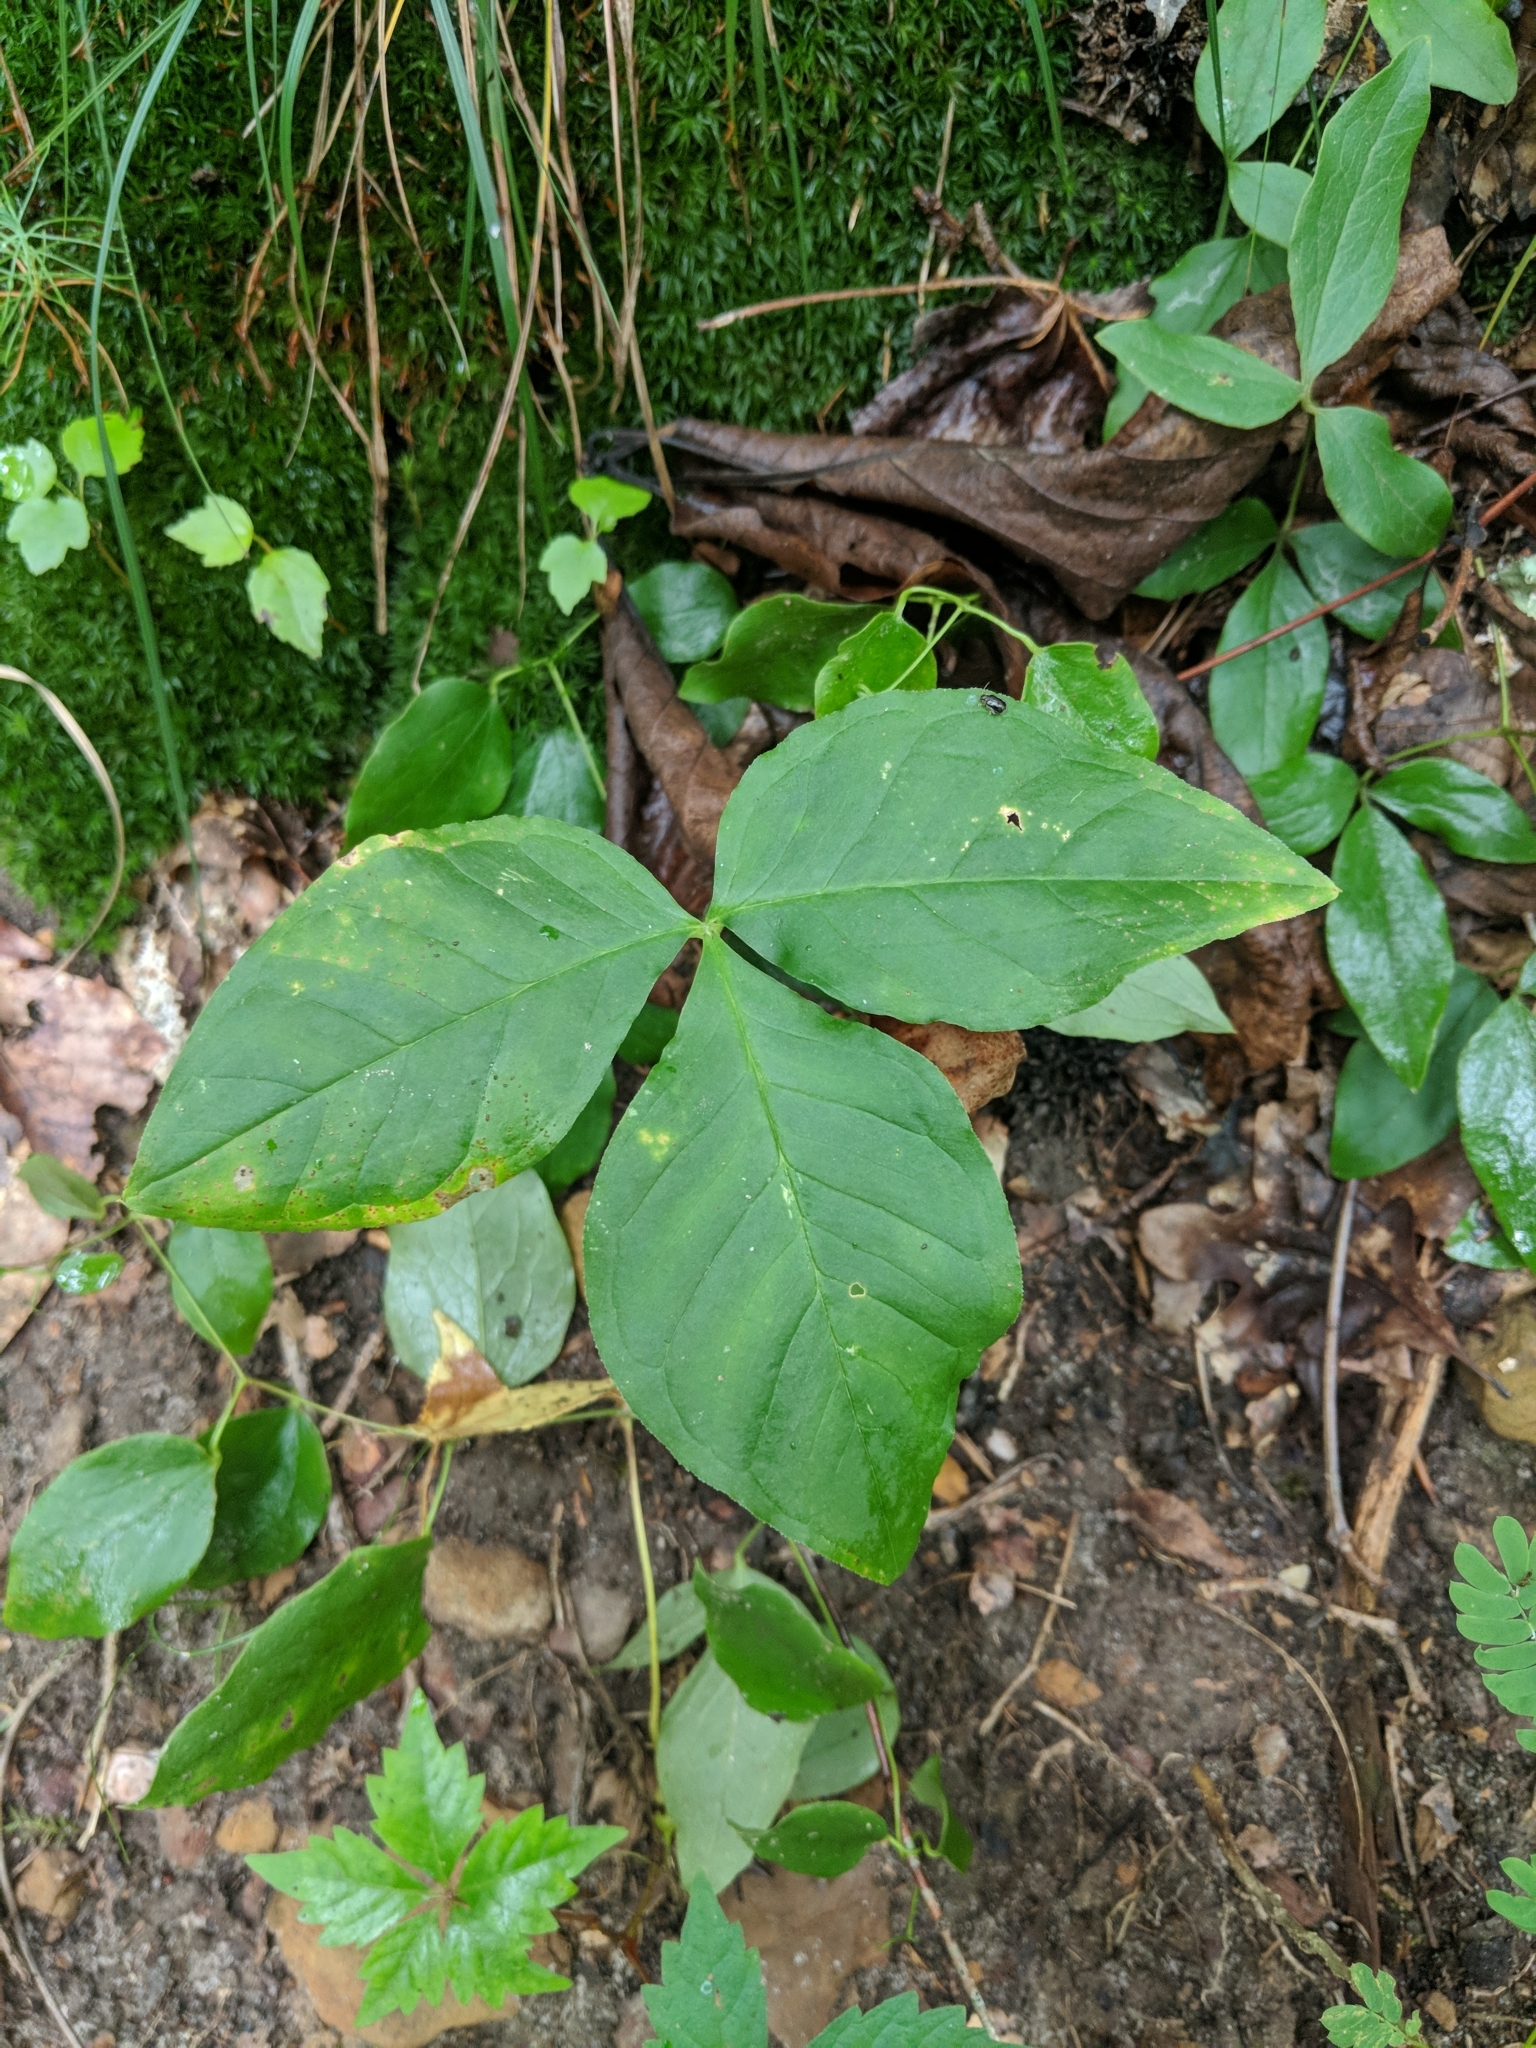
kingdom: Plantae
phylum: Tracheophyta
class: Liliopsida
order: Alismatales
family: Araceae
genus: Arisaema
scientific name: Arisaema triphyllum
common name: Jack-in-the-pulpit
